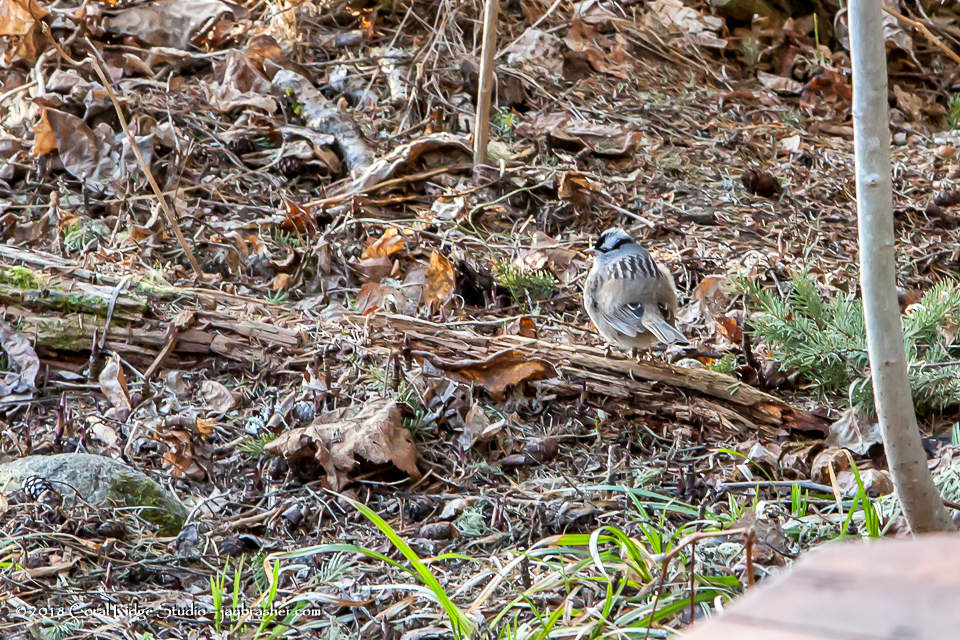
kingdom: Animalia
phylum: Chordata
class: Aves
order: Passeriformes
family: Passerellidae
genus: Zonotrichia
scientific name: Zonotrichia leucophrys
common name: White-crowned sparrow
